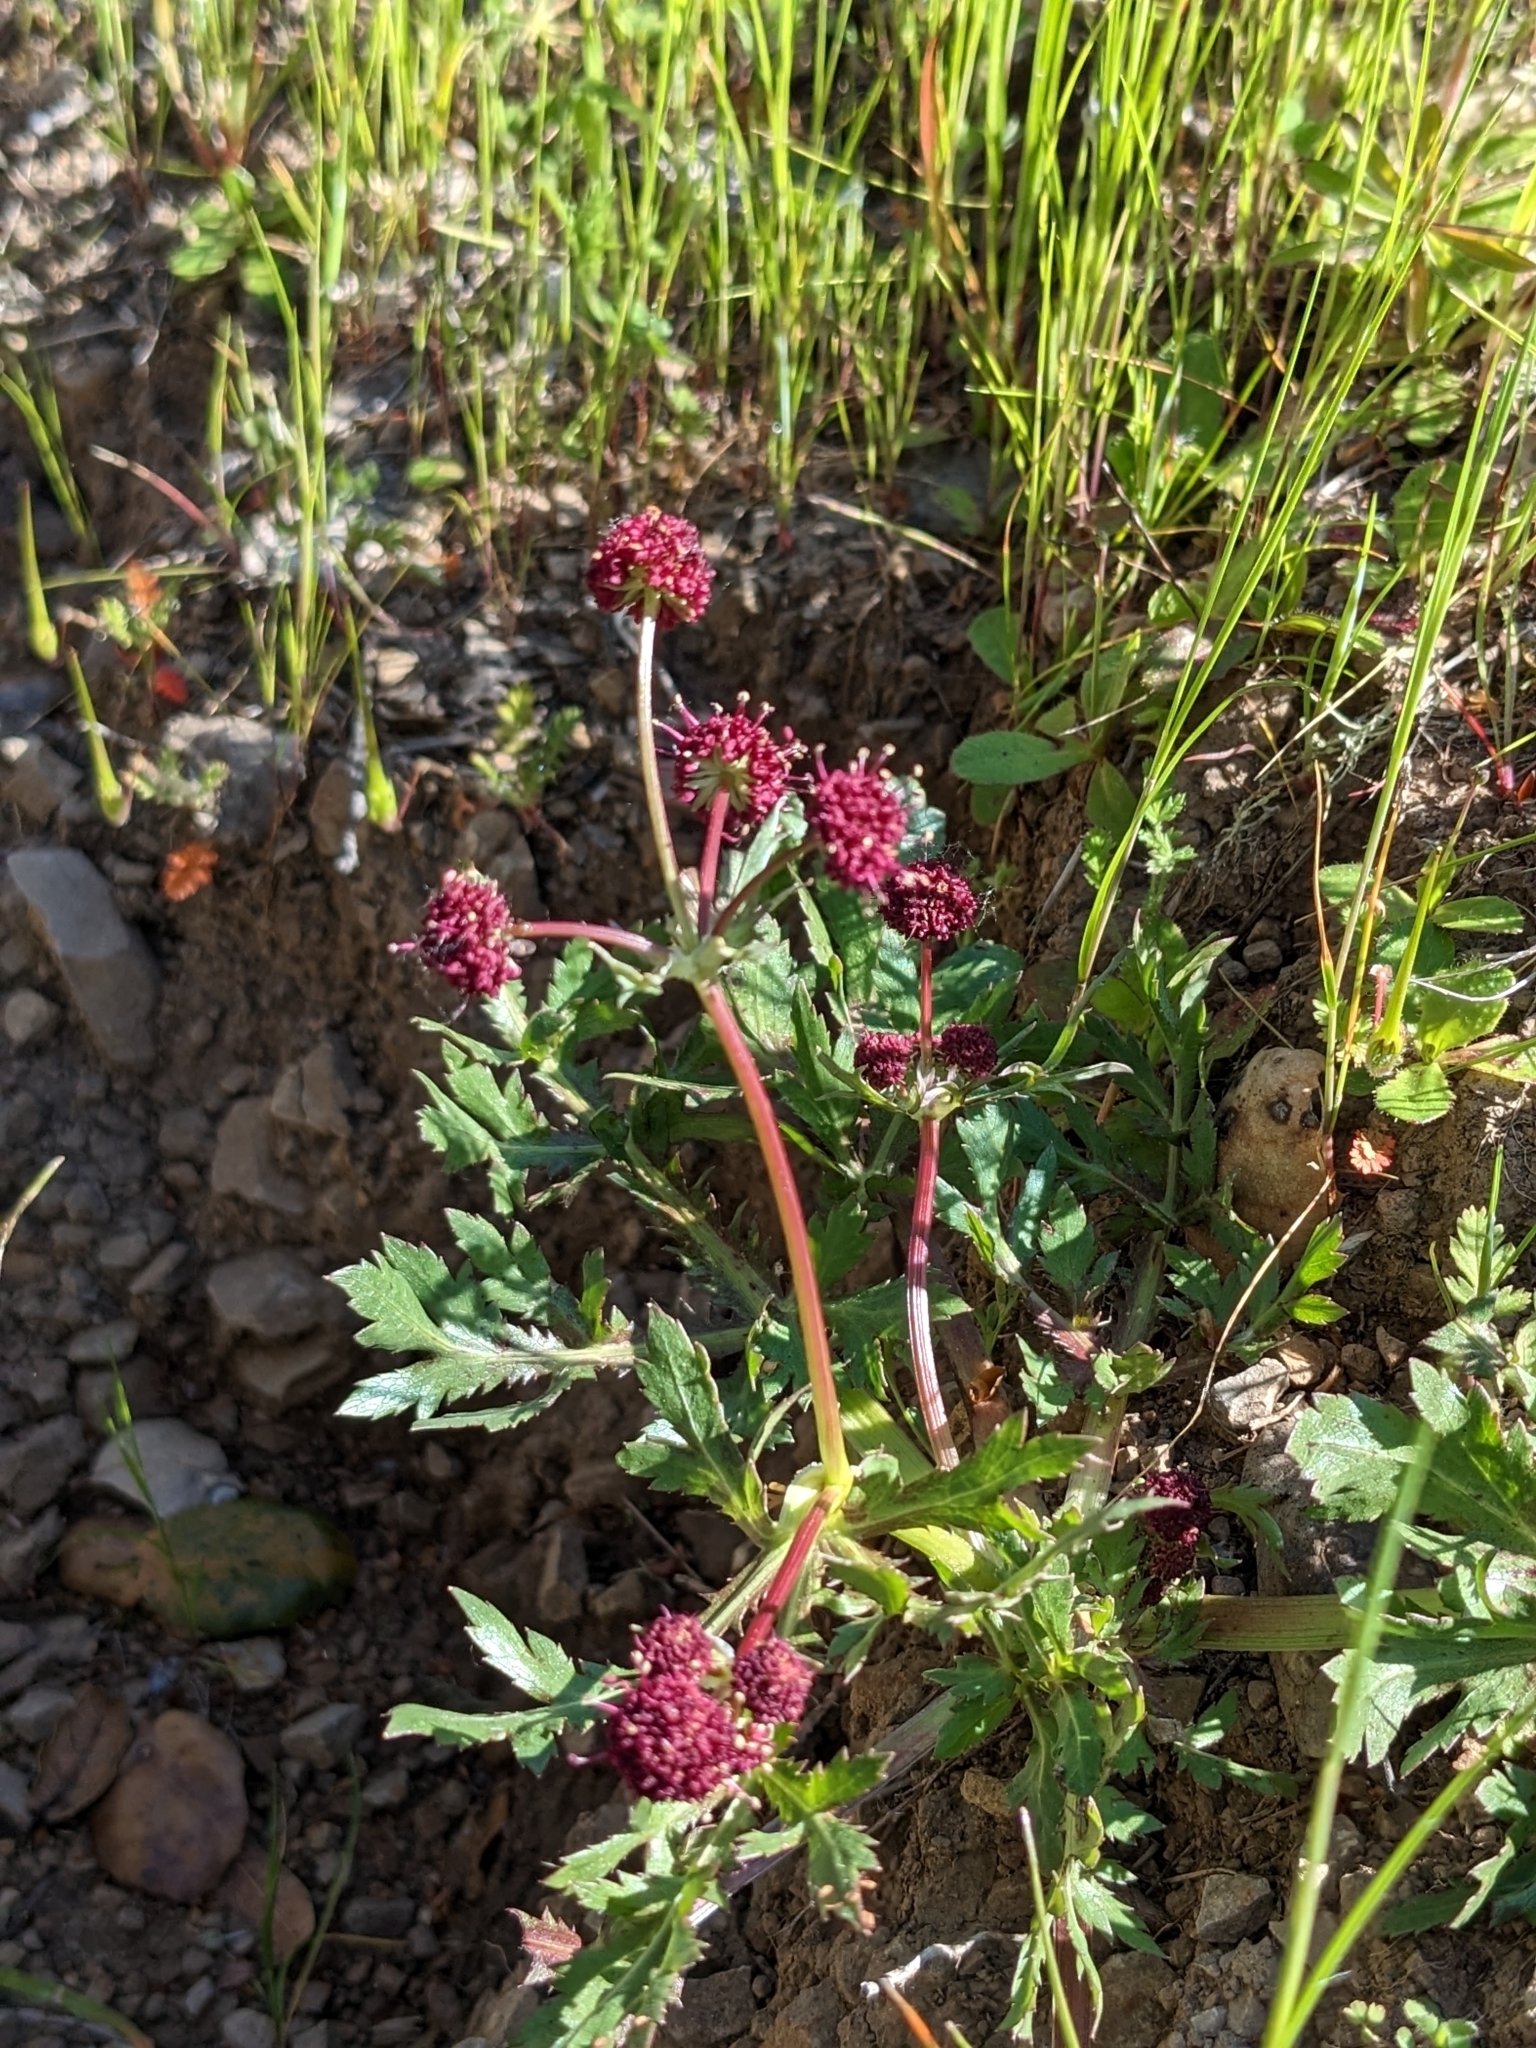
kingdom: Plantae
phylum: Tracheophyta
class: Magnoliopsida
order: Apiales
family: Apiaceae
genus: Sanicula
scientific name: Sanicula bipinnatifida
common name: Shoe-buttons
